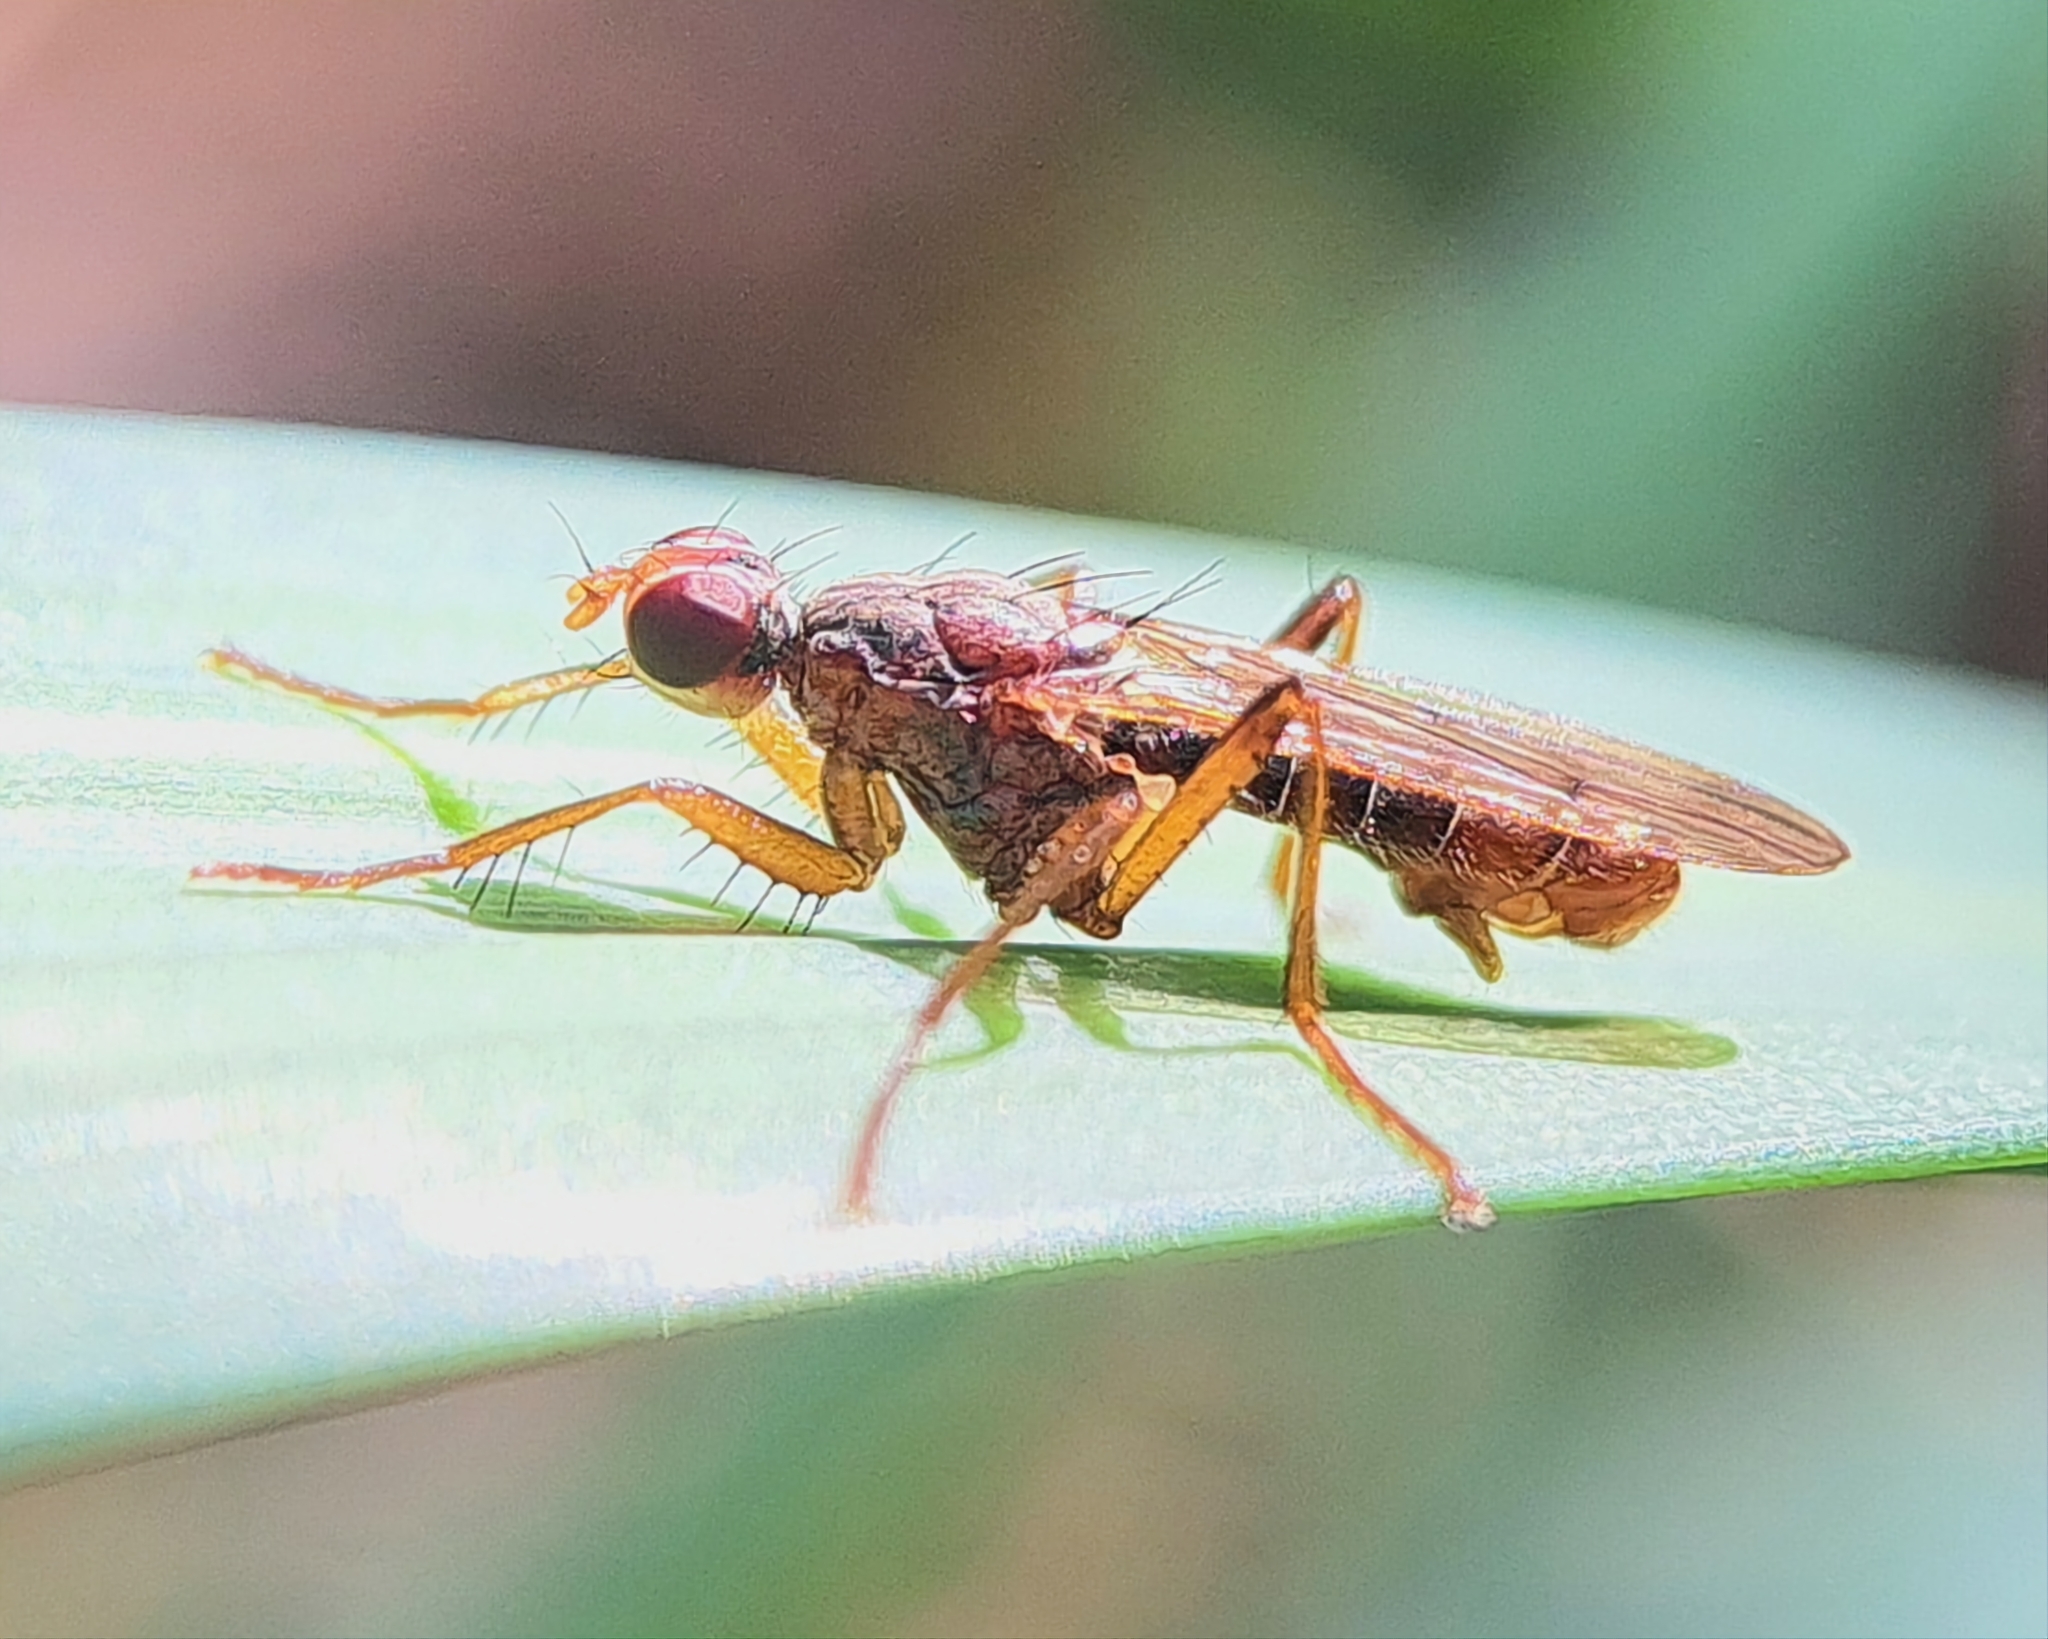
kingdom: Animalia
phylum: Arthropoda
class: Insecta
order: Diptera
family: Scathophagidae
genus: Norellia
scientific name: Norellia spinipes
